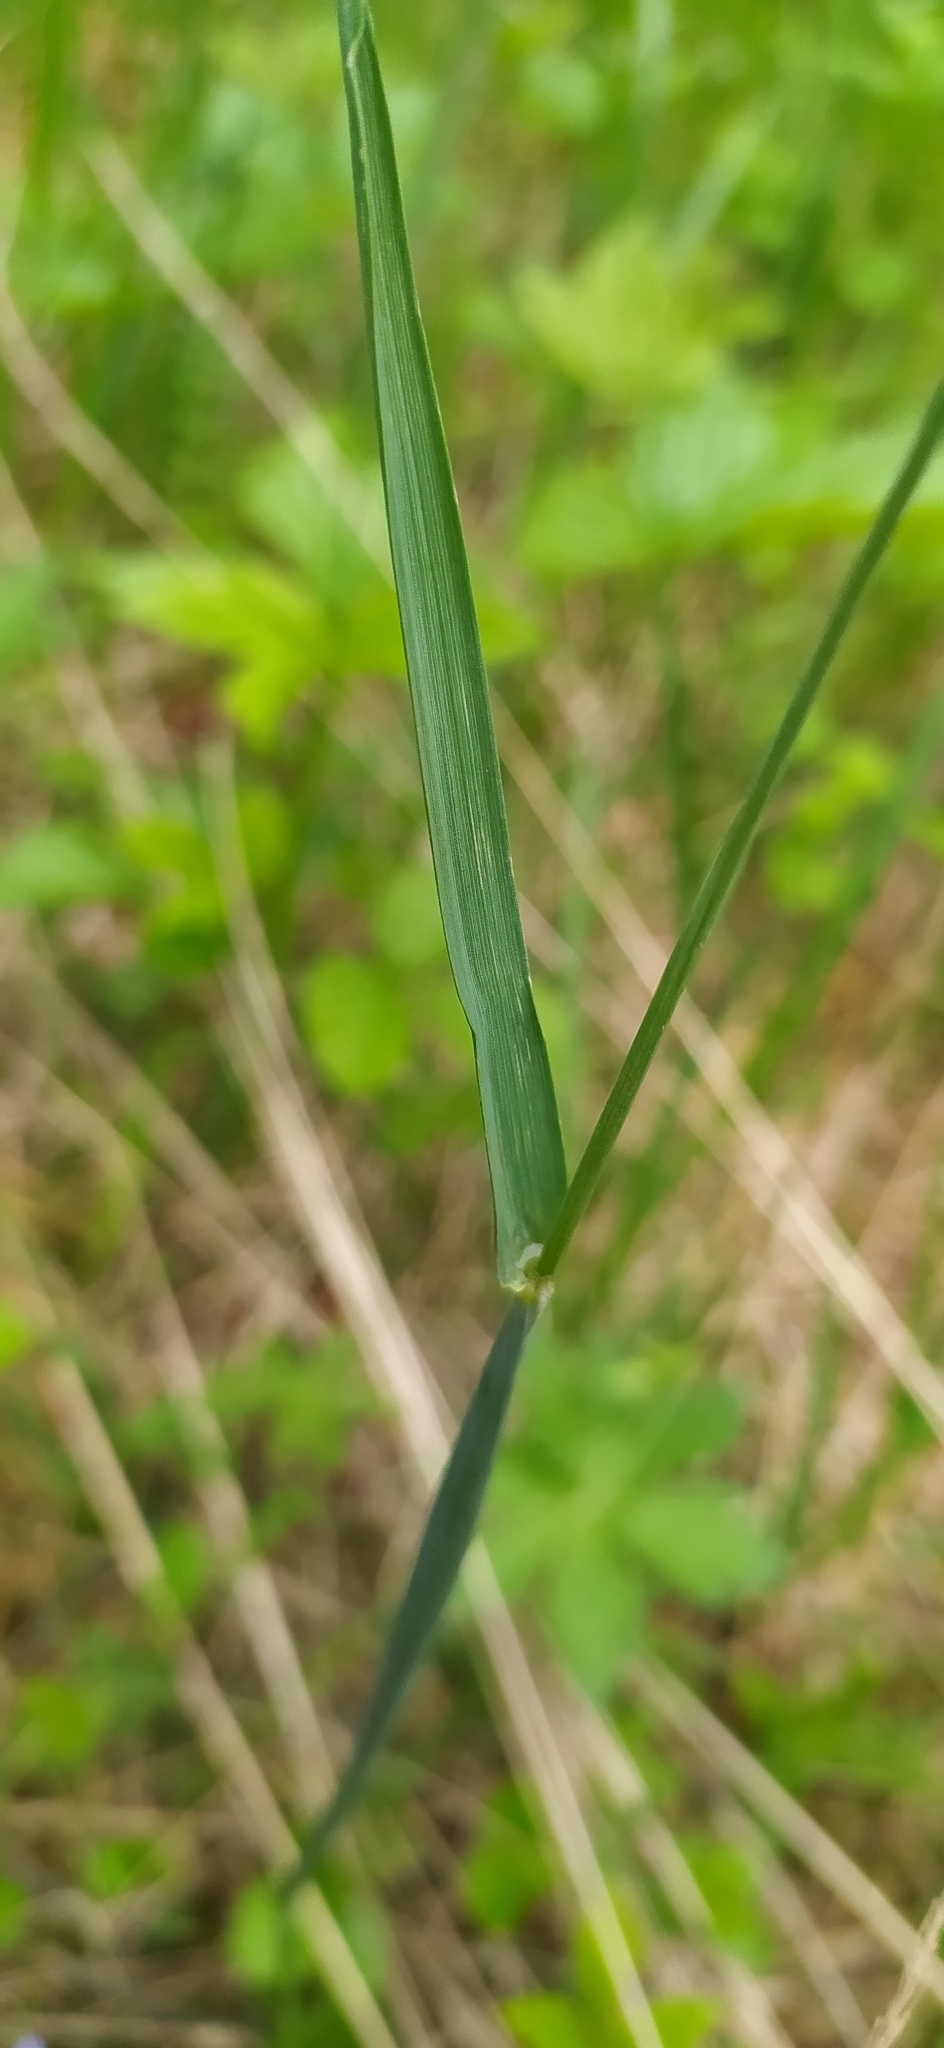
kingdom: Plantae
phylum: Tracheophyta
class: Liliopsida
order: Poales
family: Poaceae
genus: Alopecurus
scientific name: Alopecurus pratensis
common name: Meadow foxtail
